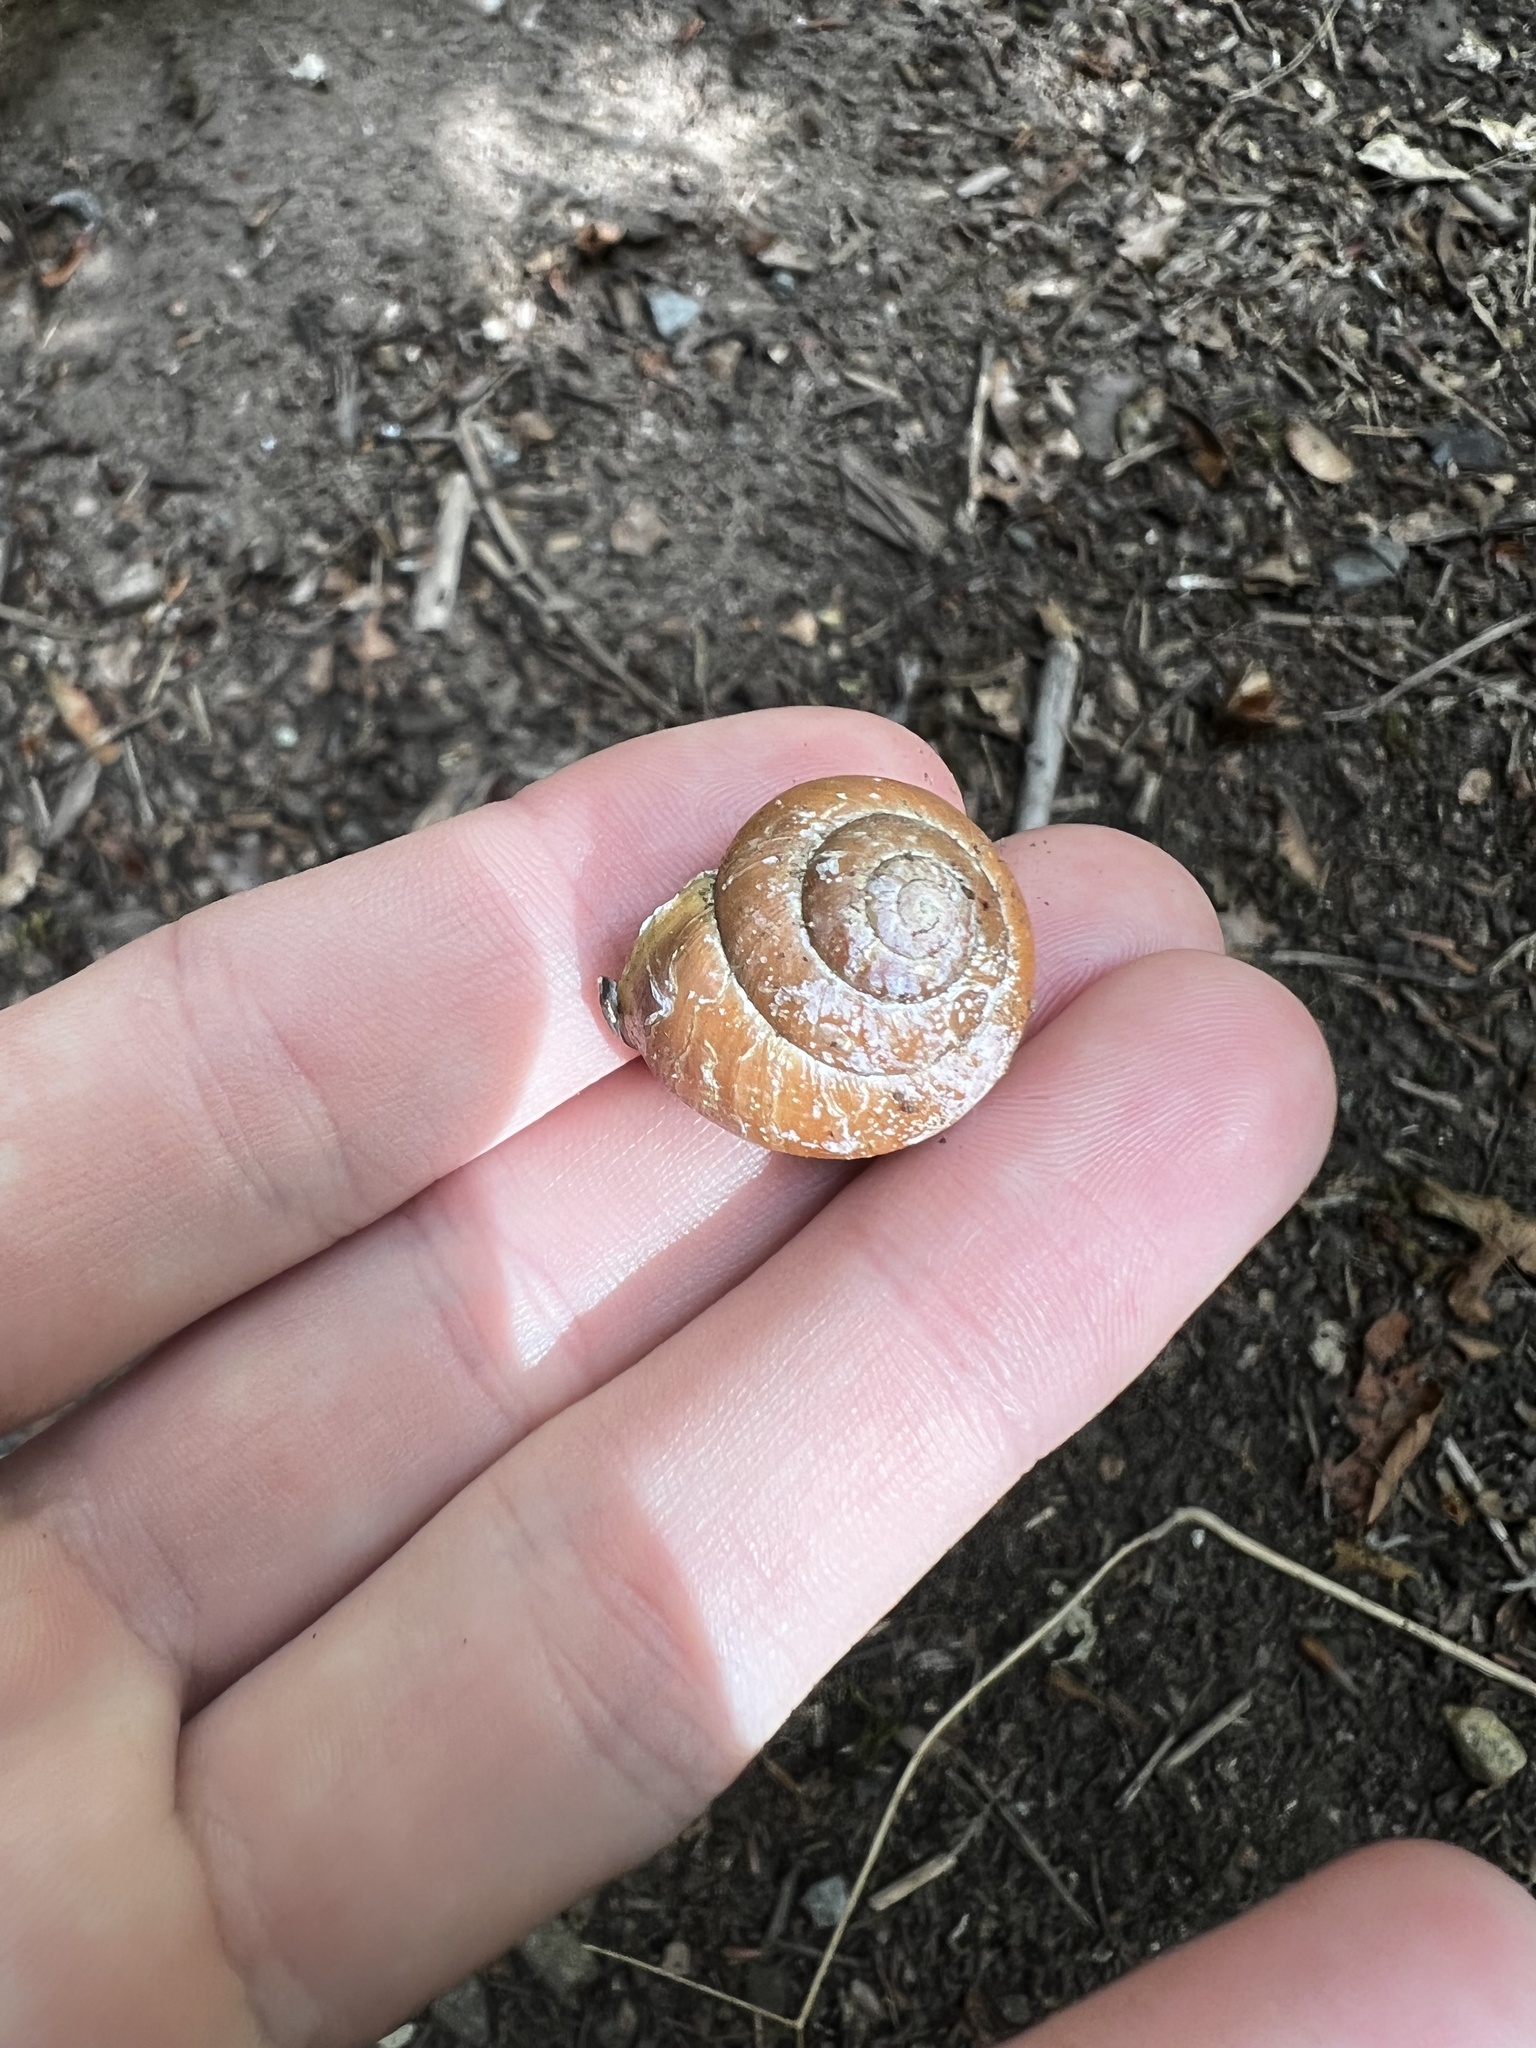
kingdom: Animalia
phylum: Mollusca
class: Gastropoda
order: Stylommatophora
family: Helicidae
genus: Cepaea
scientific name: Cepaea nemoralis
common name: Grovesnail
